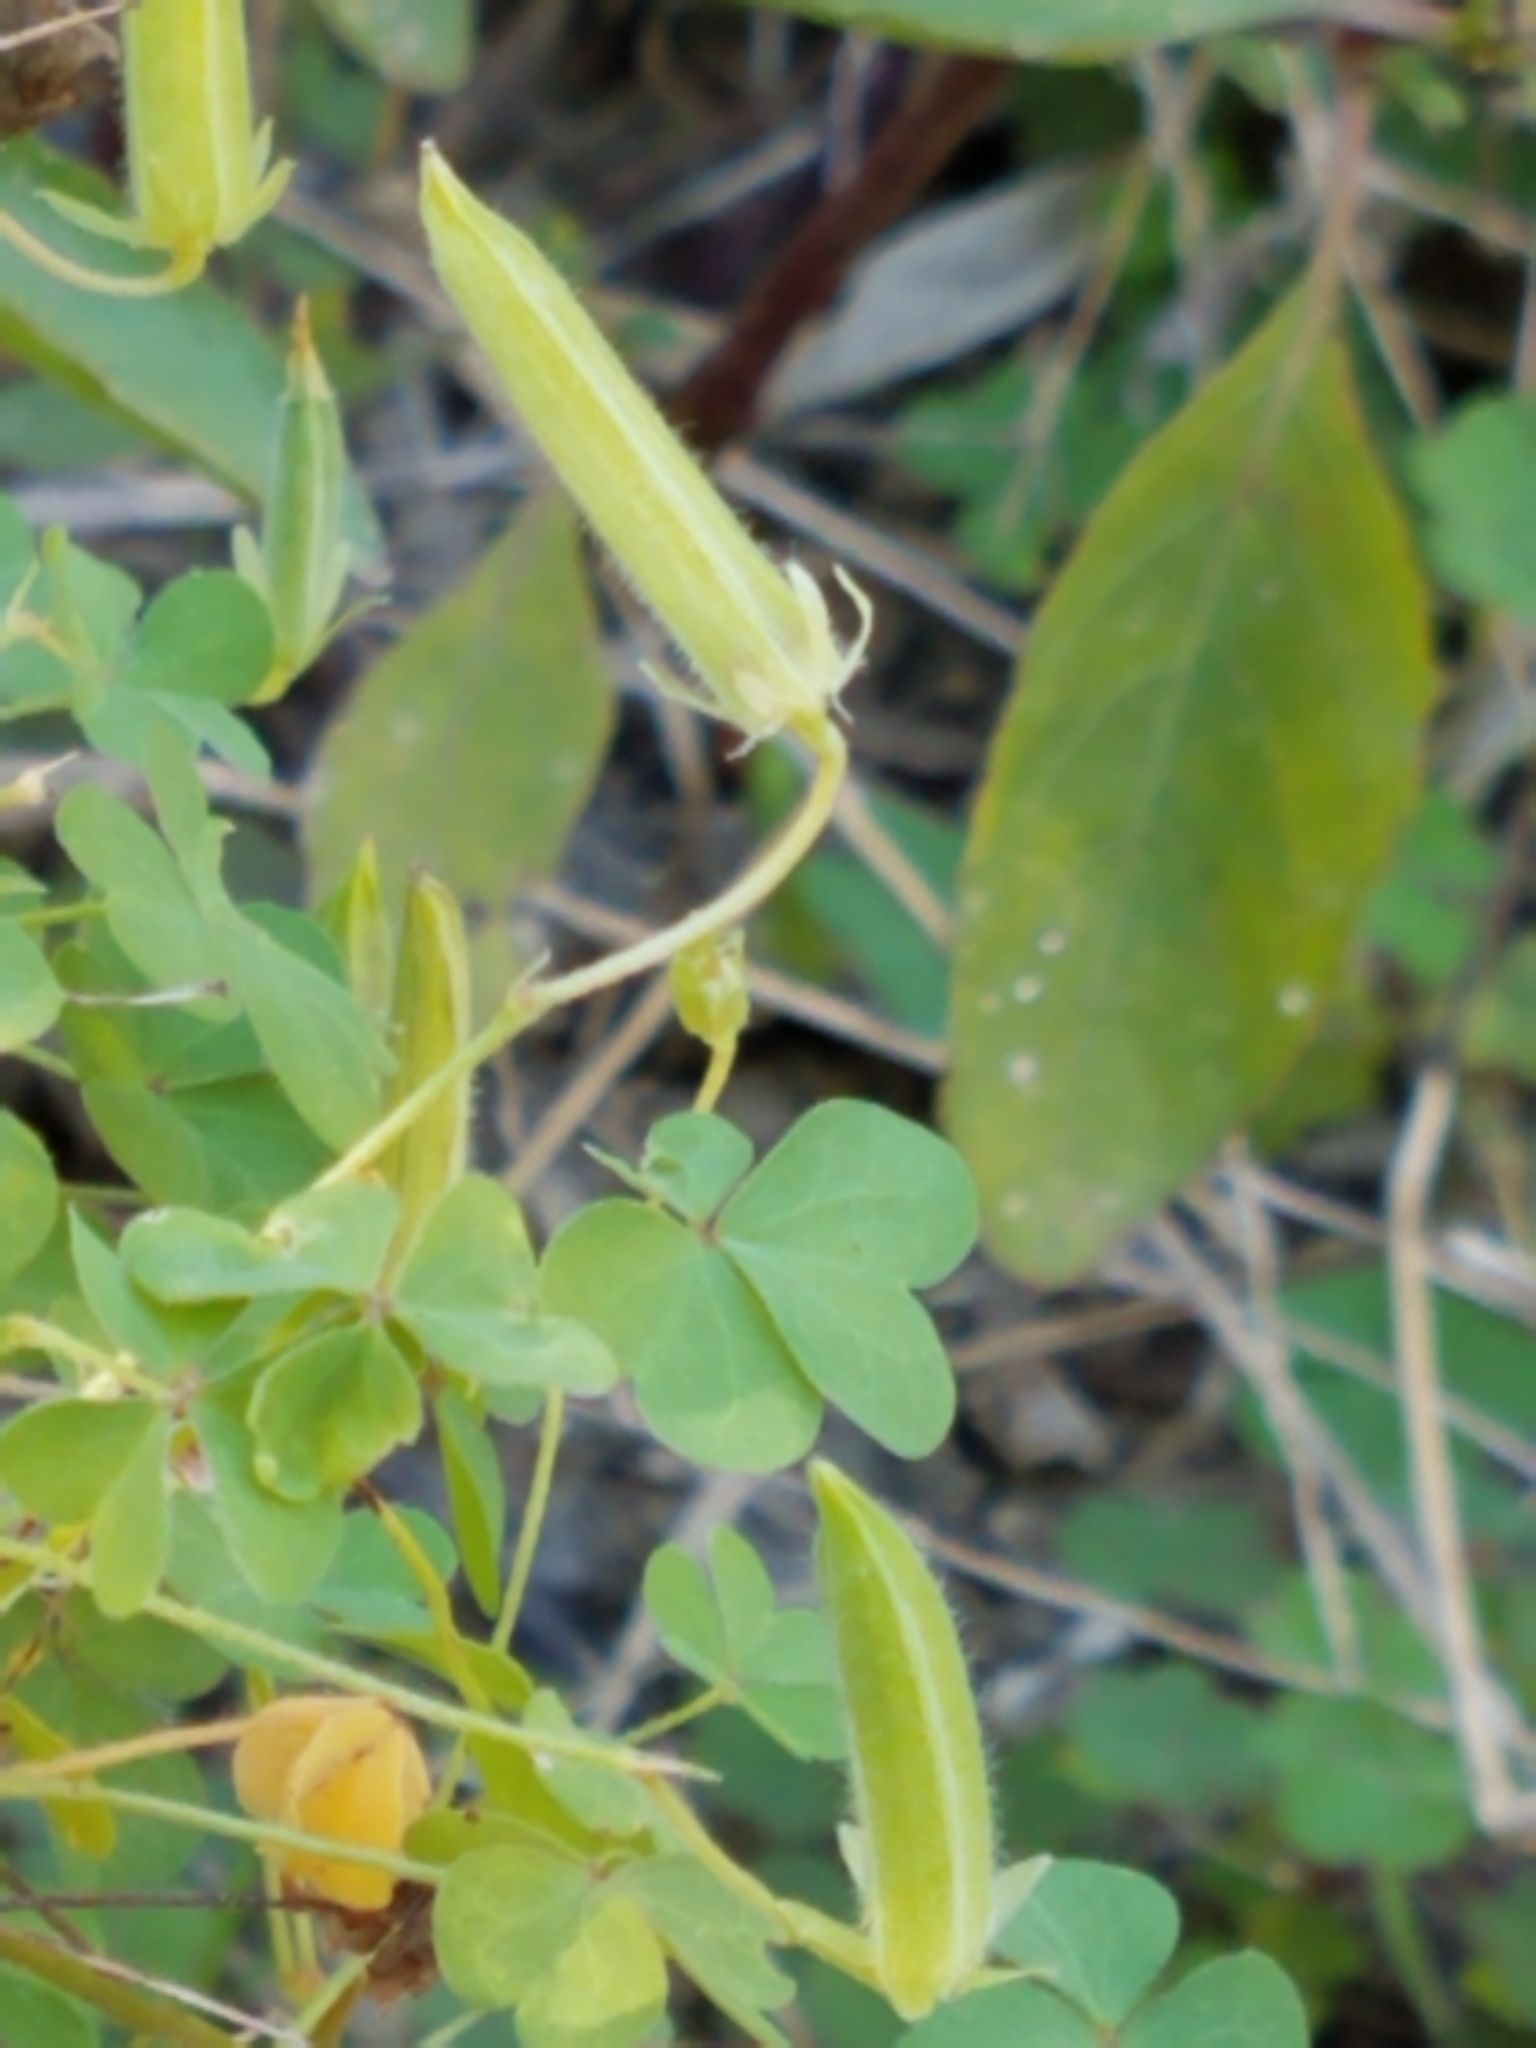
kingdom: Plantae
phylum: Tracheophyta
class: Magnoliopsida
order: Oxalidales
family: Oxalidaceae
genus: Oxalis
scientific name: Oxalis dillenii
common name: Sussex yellow-sorrel
